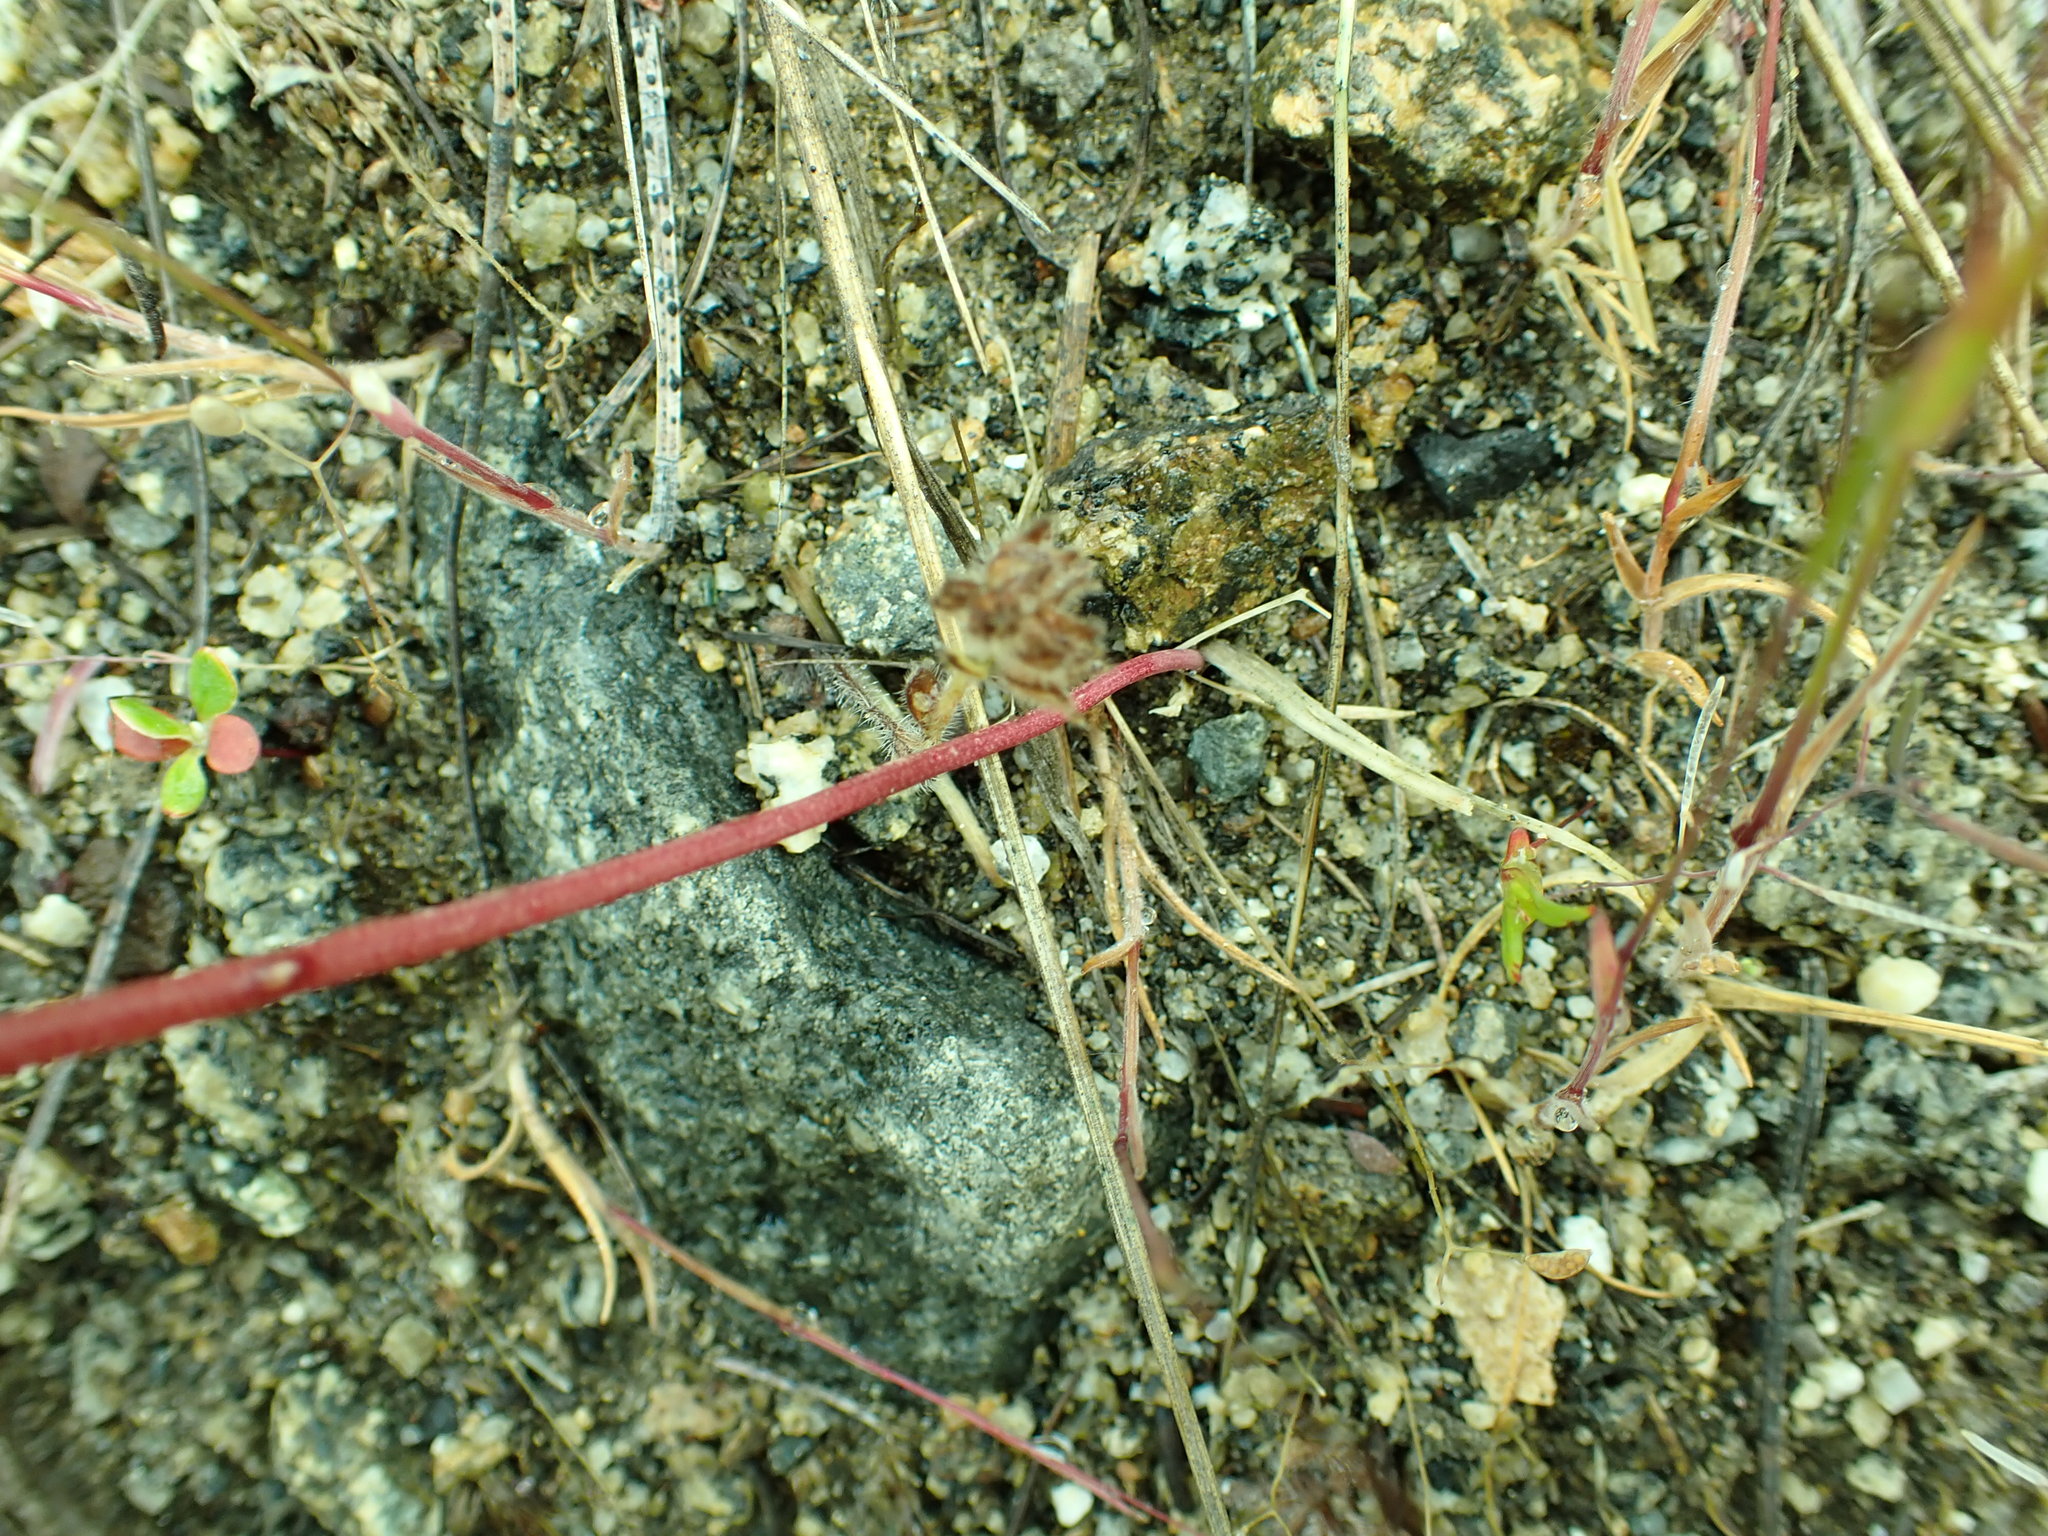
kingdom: Plantae
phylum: Tracheophyta
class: Liliopsida
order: Asparagales
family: Amaryllidaceae
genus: Allium
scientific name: Allium acuminatum
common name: Hooker's onion
